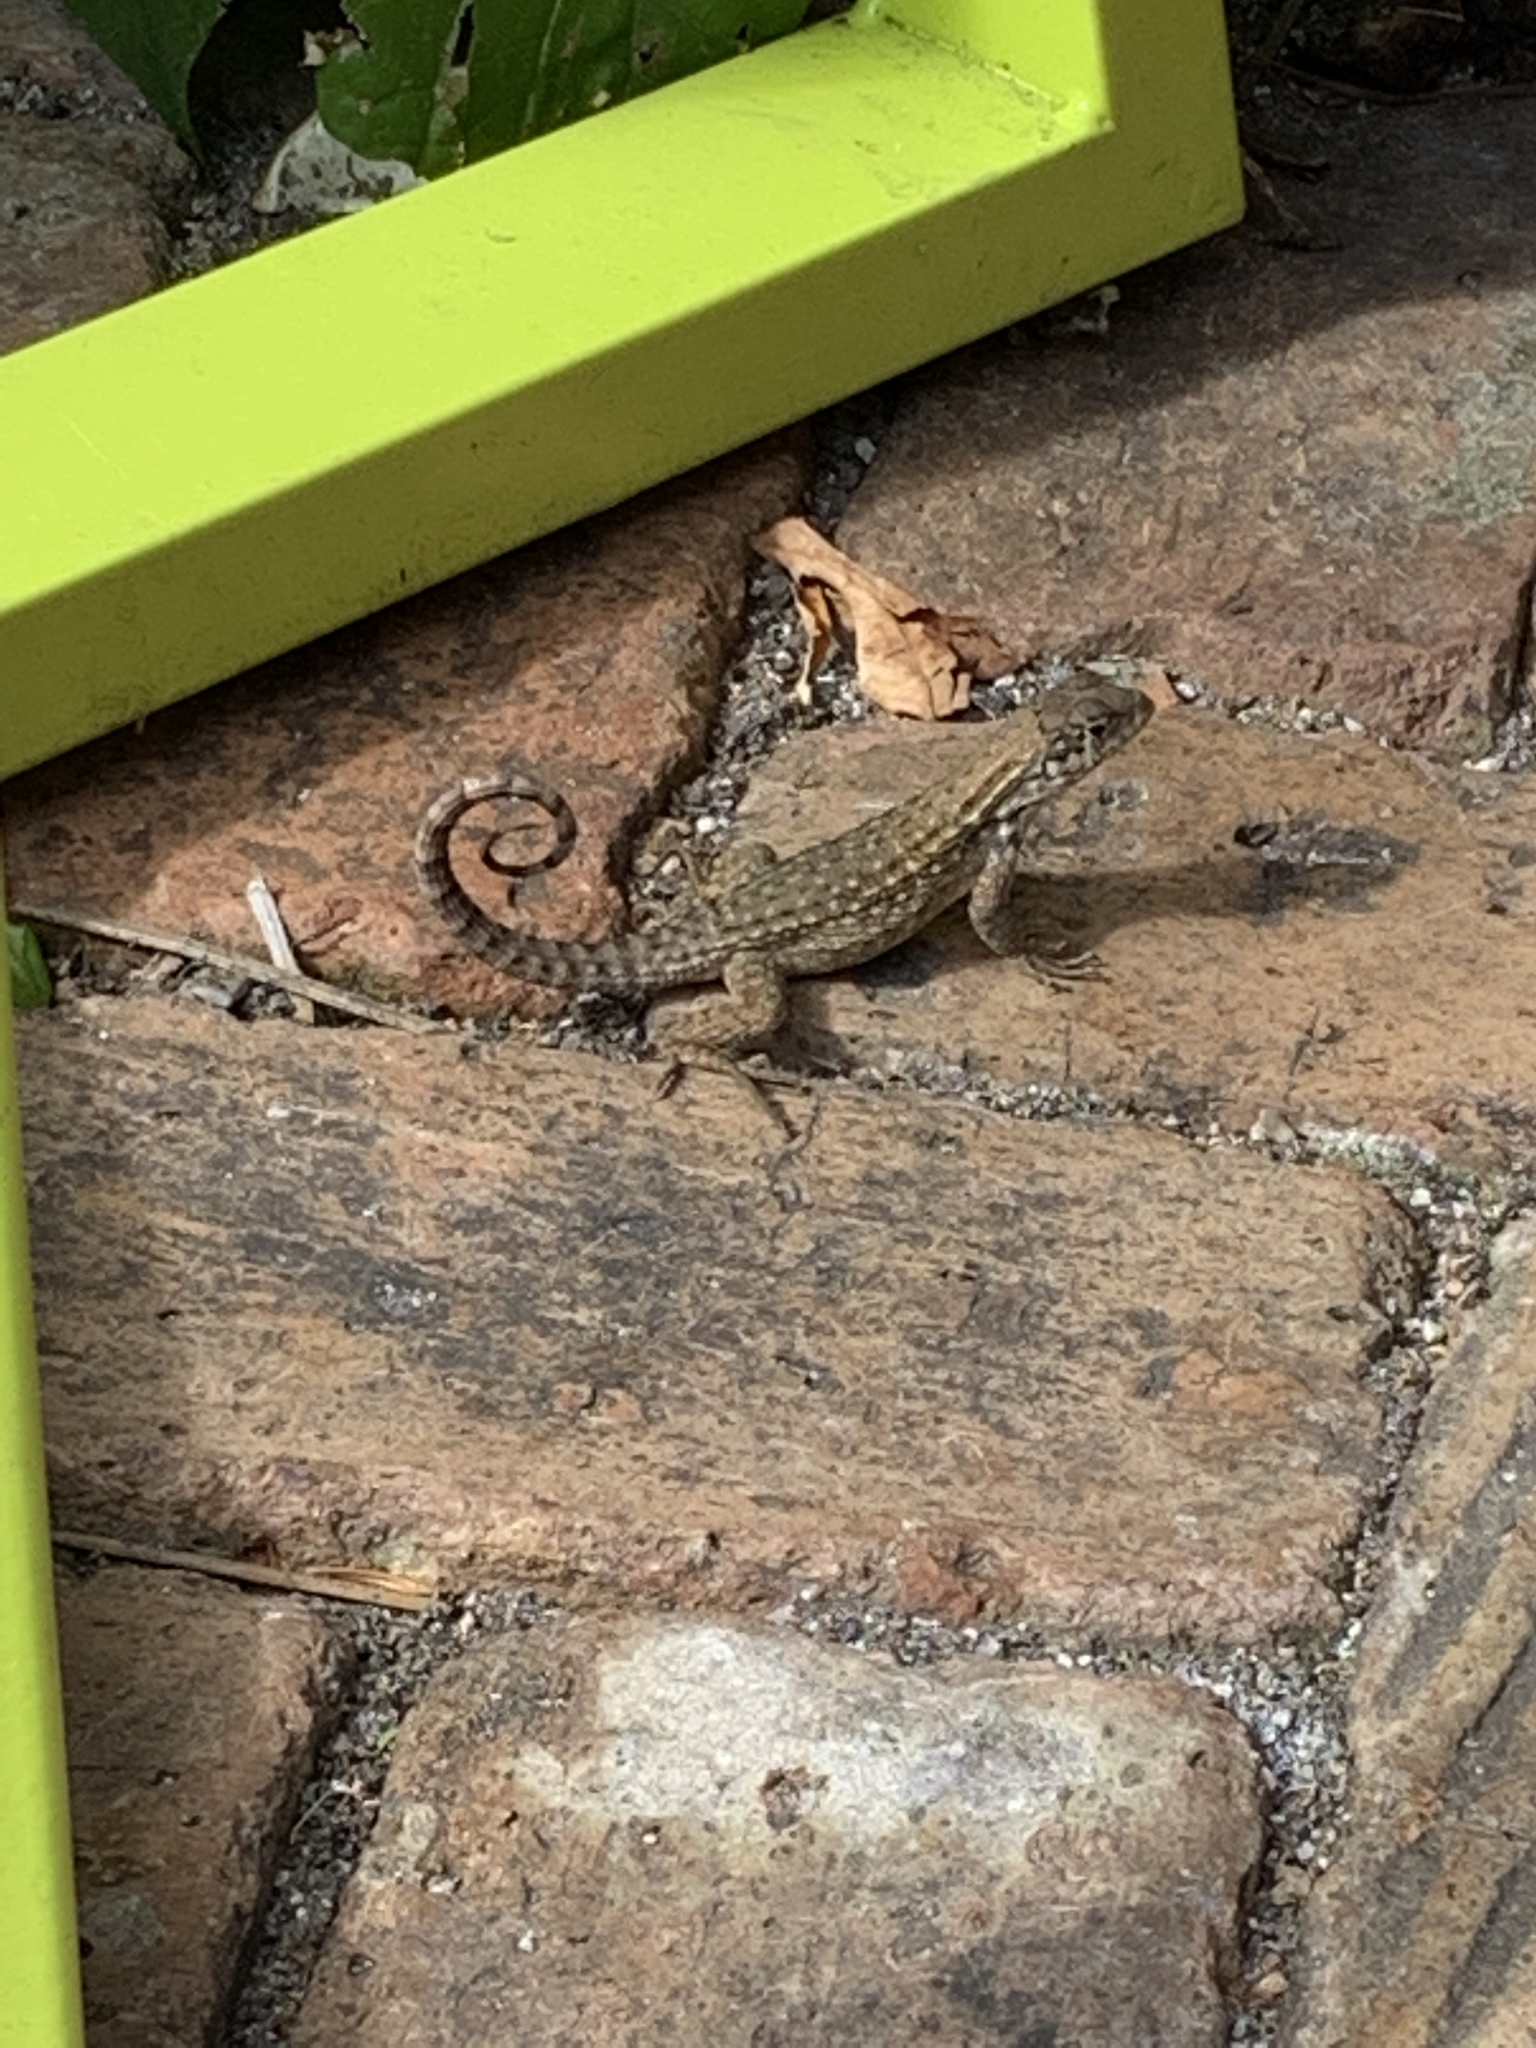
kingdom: Animalia
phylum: Chordata
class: Squamata
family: Leiocephalidae
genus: Leiocephalus
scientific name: Leiocephalus carinatus
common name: Northern curly-tailed lizard
